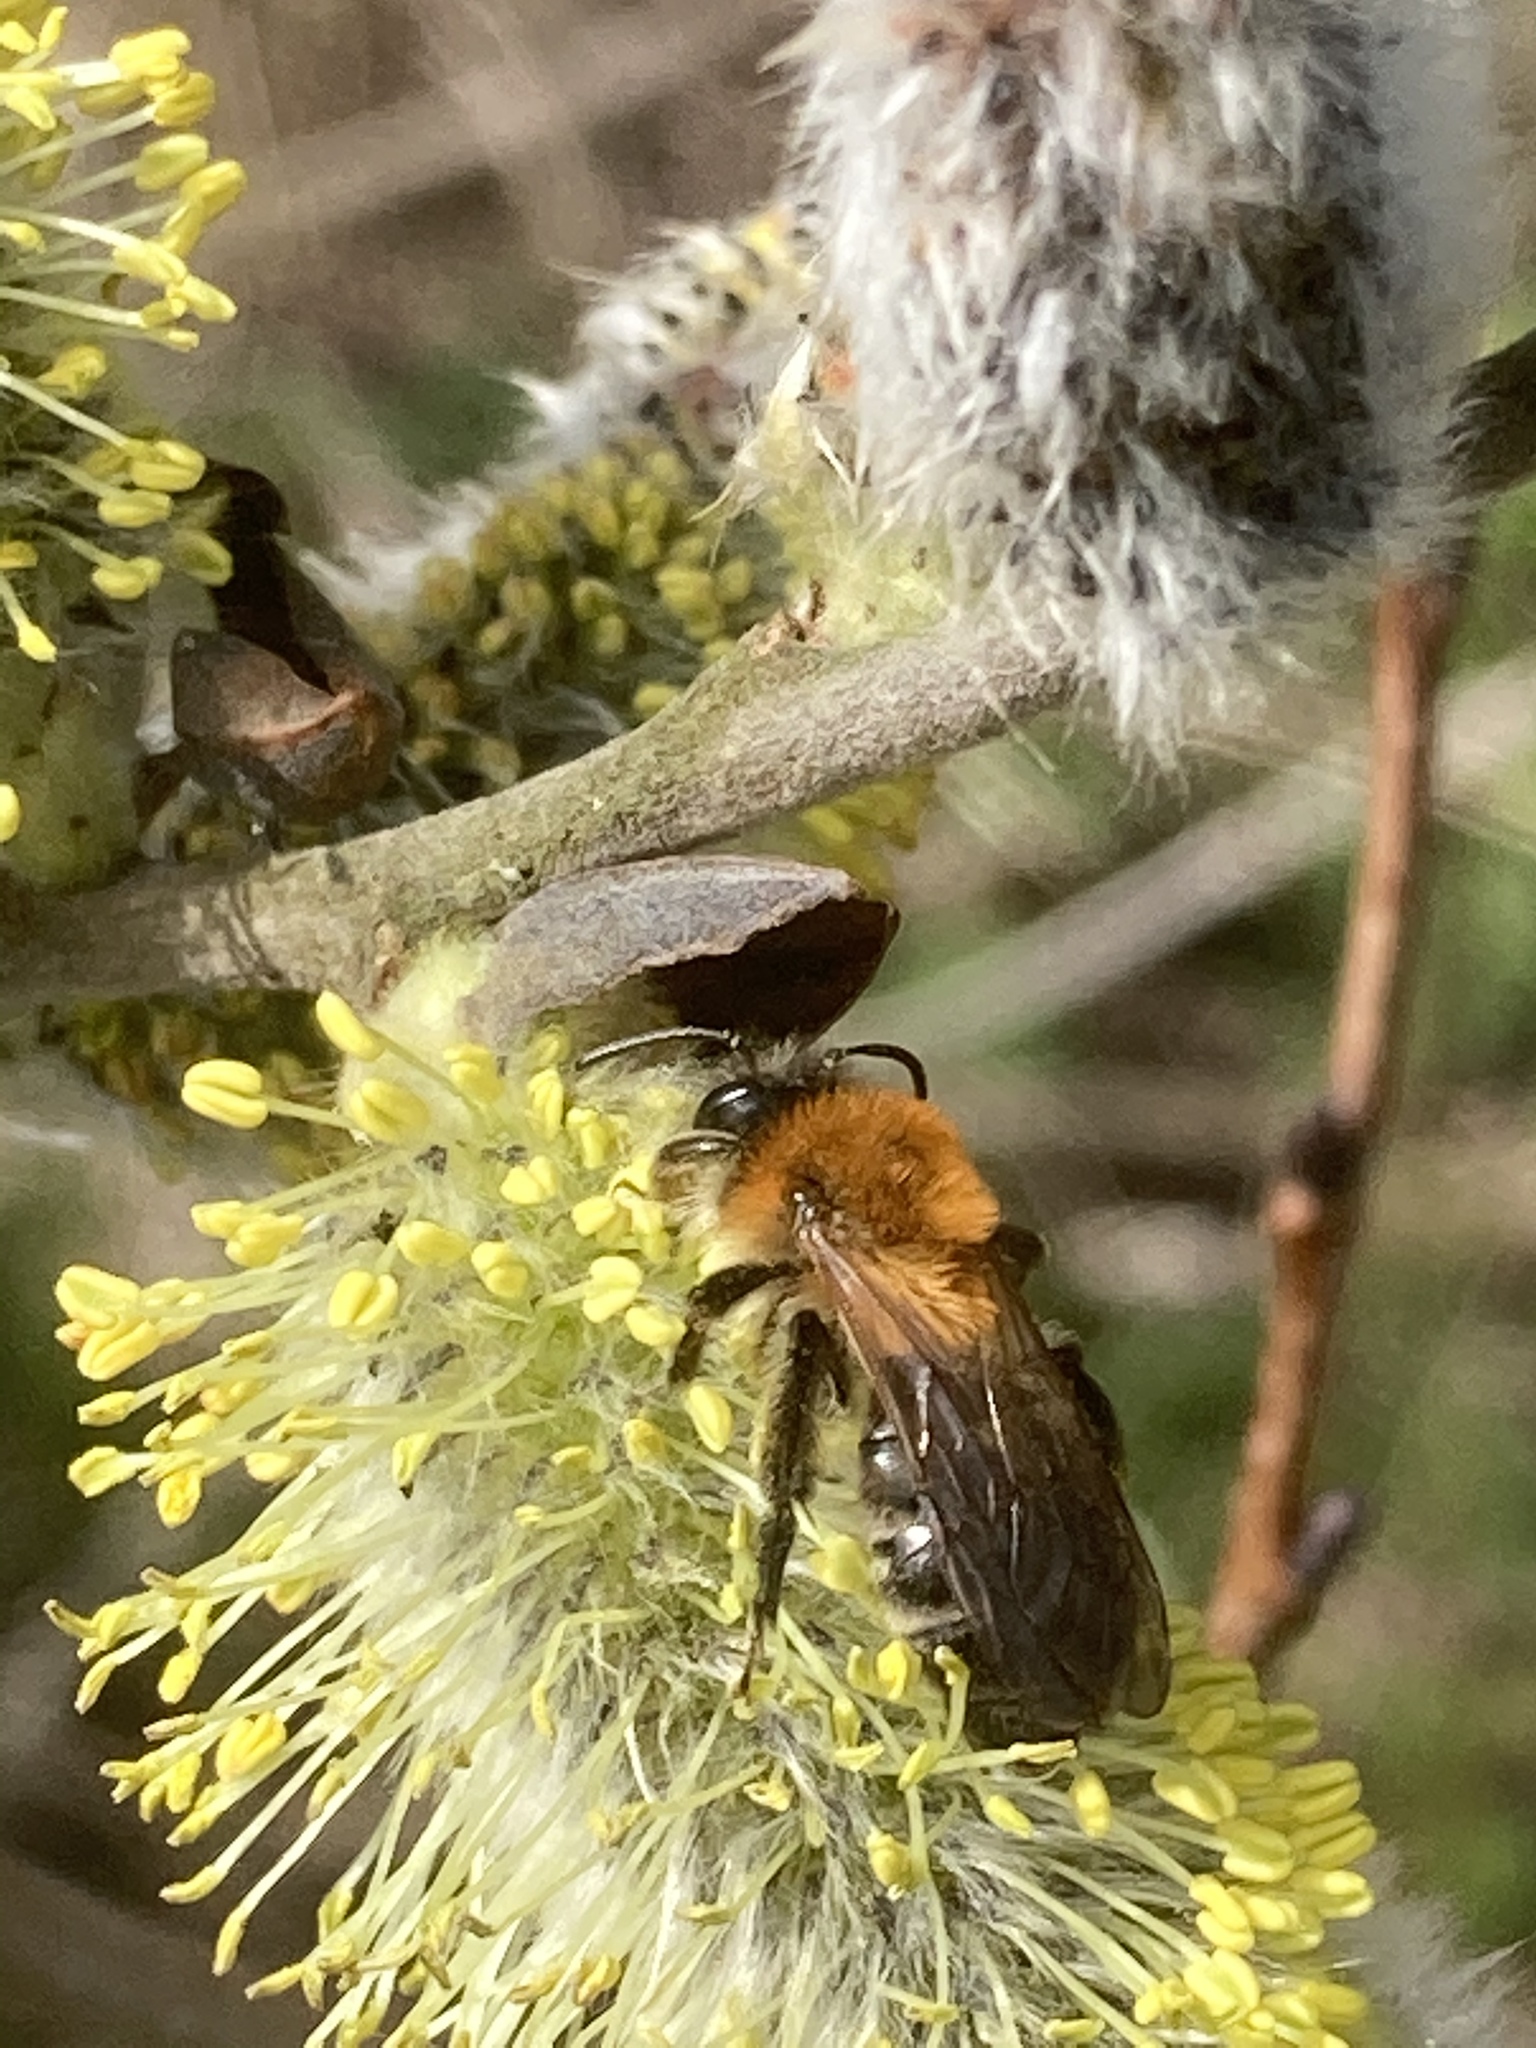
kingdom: Animalia
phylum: Arthropoda
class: Insecta
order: Hymenoptera
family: Andrenidae
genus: Andrena
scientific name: Andrena nitida
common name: Grey-patched mining bee
